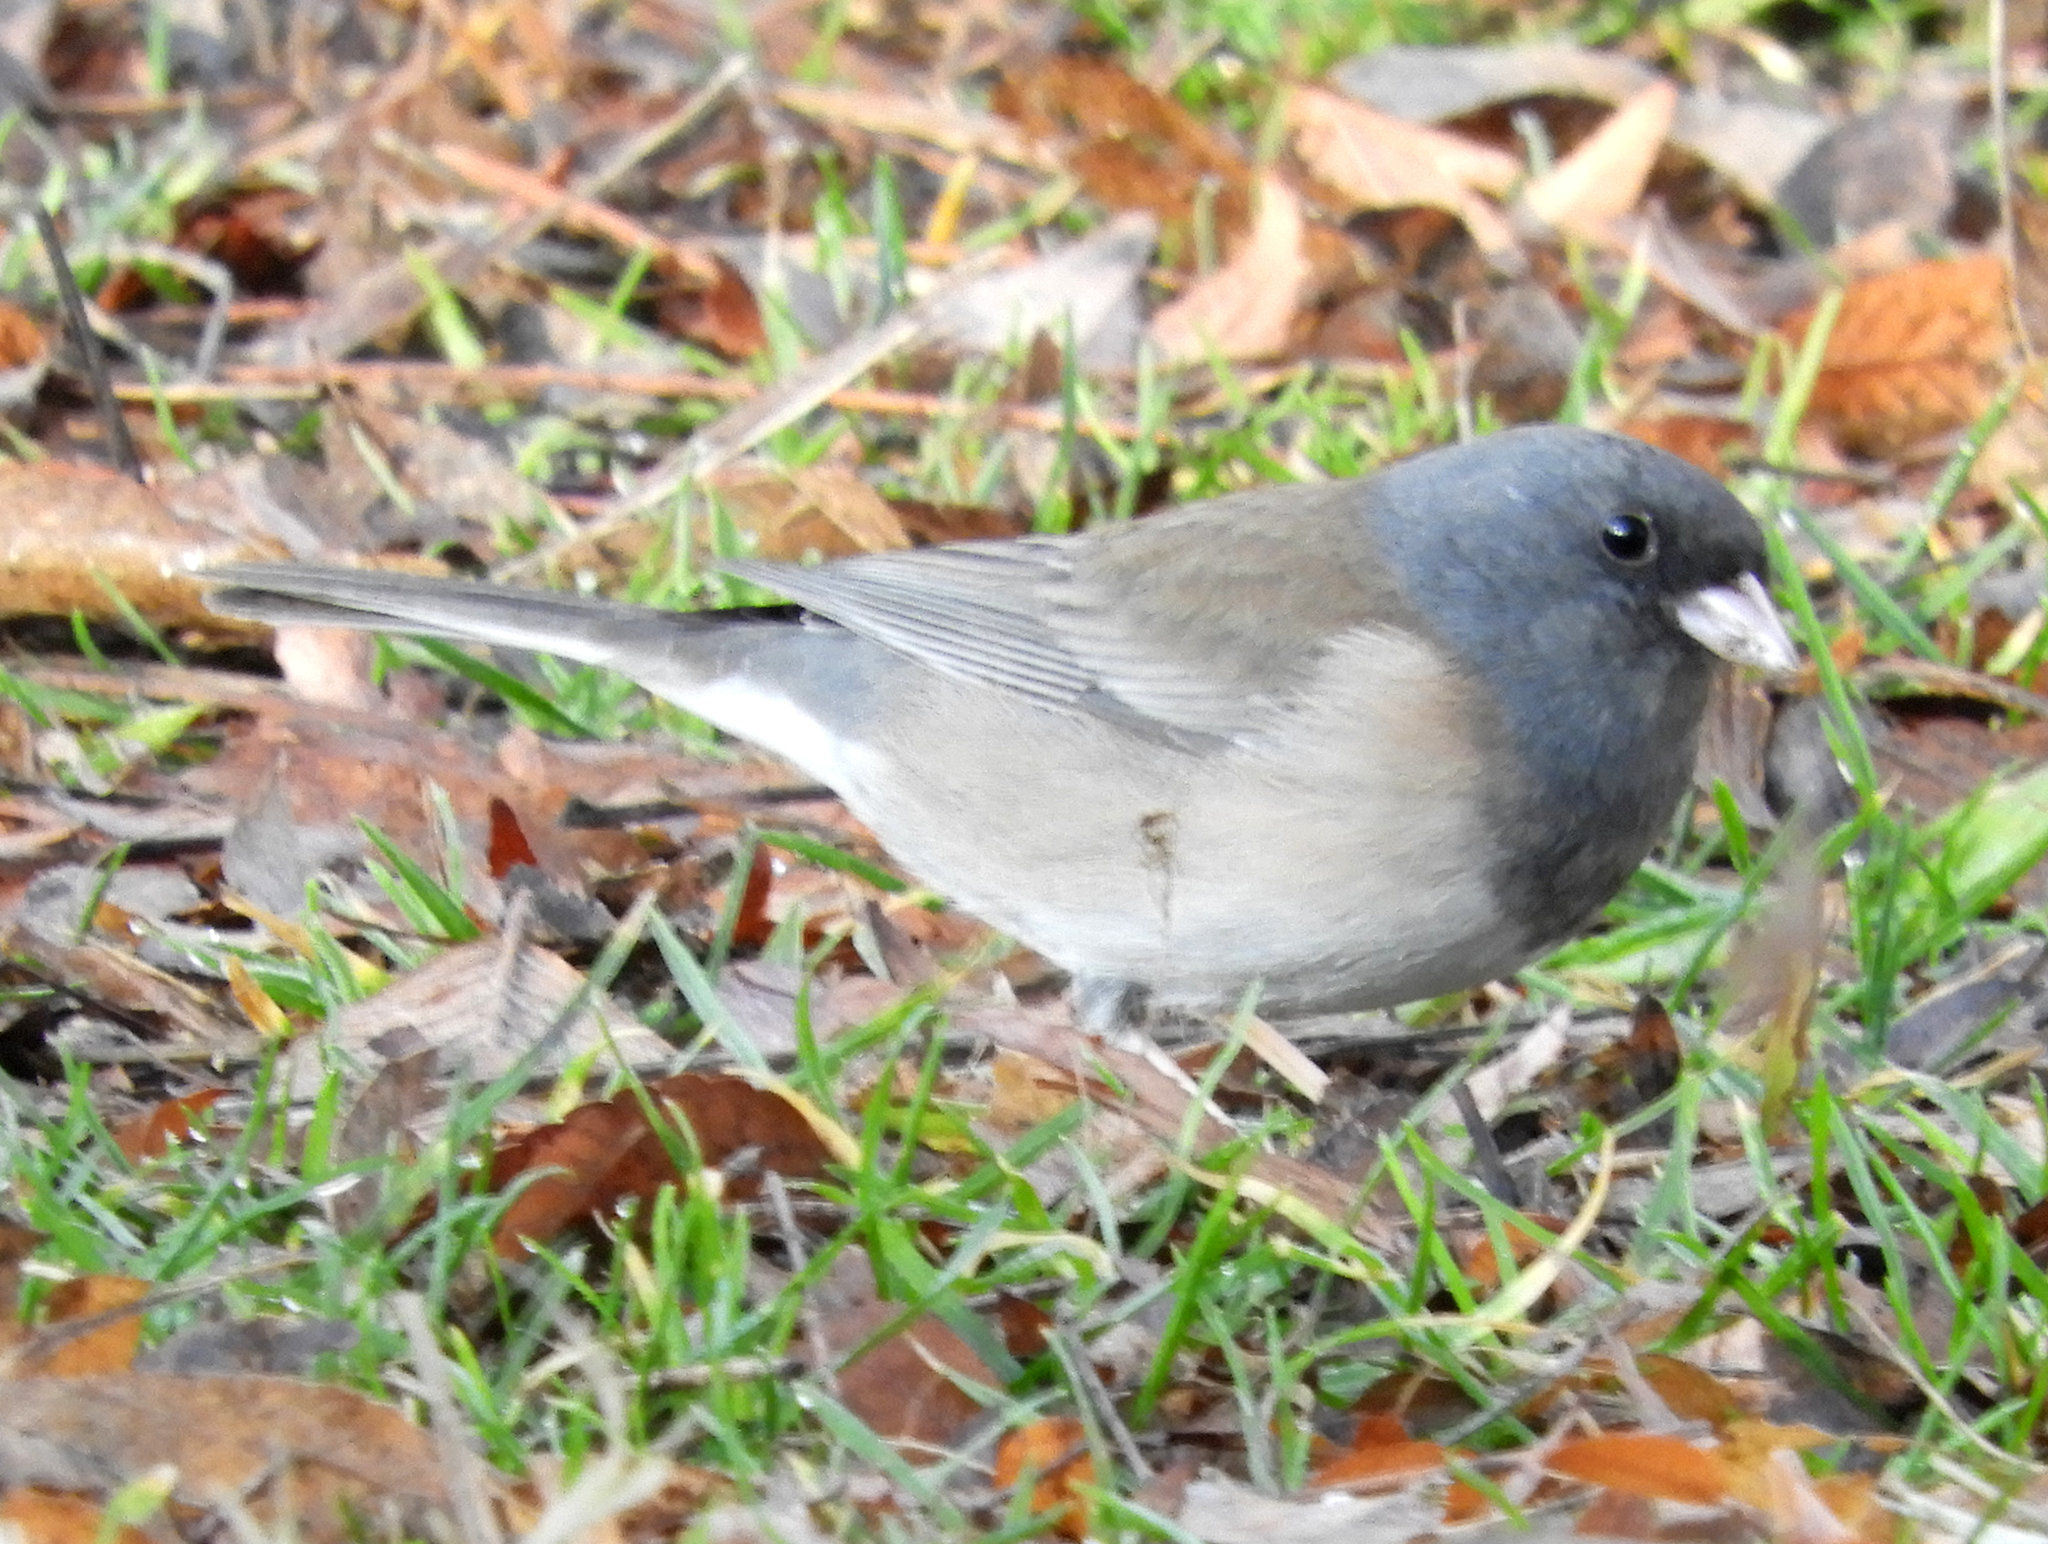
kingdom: Animalia
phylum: Chordata
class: Aves
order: Passeriformes
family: Passerellidae
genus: Junco
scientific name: Junco hyemalis
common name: Dark-eyed junco
